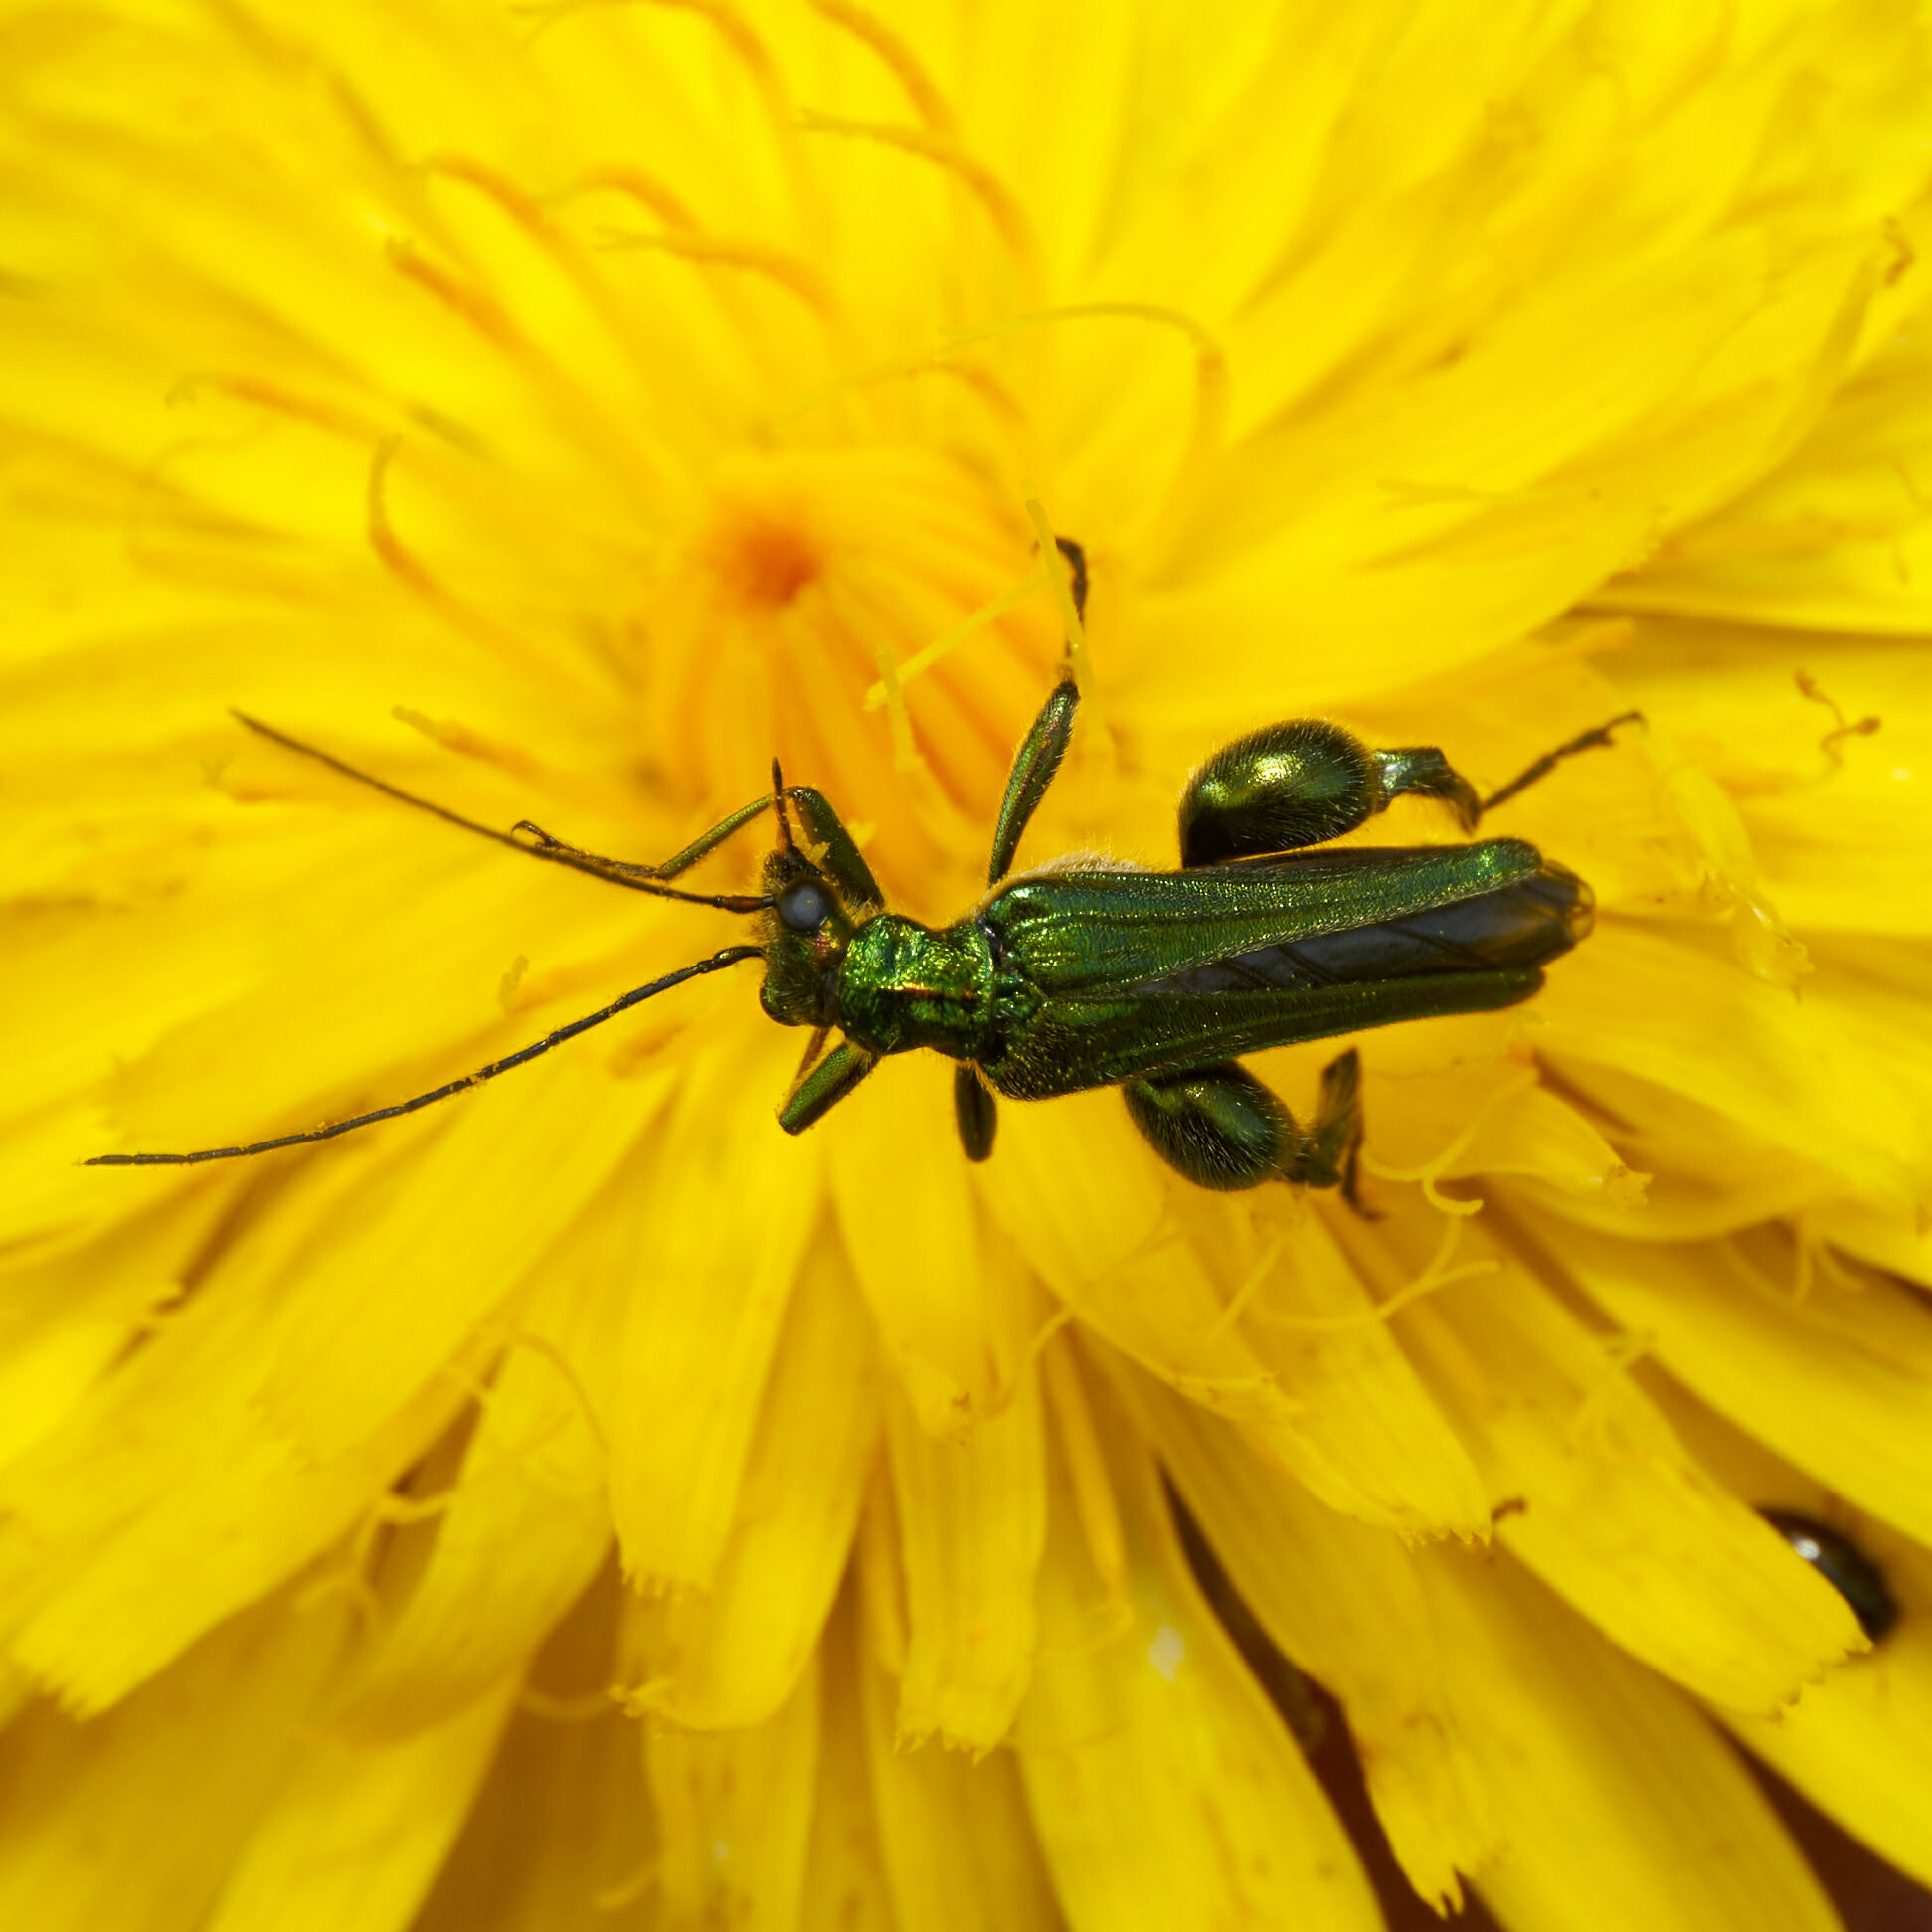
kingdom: Animalia
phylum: Arthropoda
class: Insecta
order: Coleoptera
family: Oedemeridae
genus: Oedemera
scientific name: Oedemera nobilis
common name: Swollen-thighed beetle
